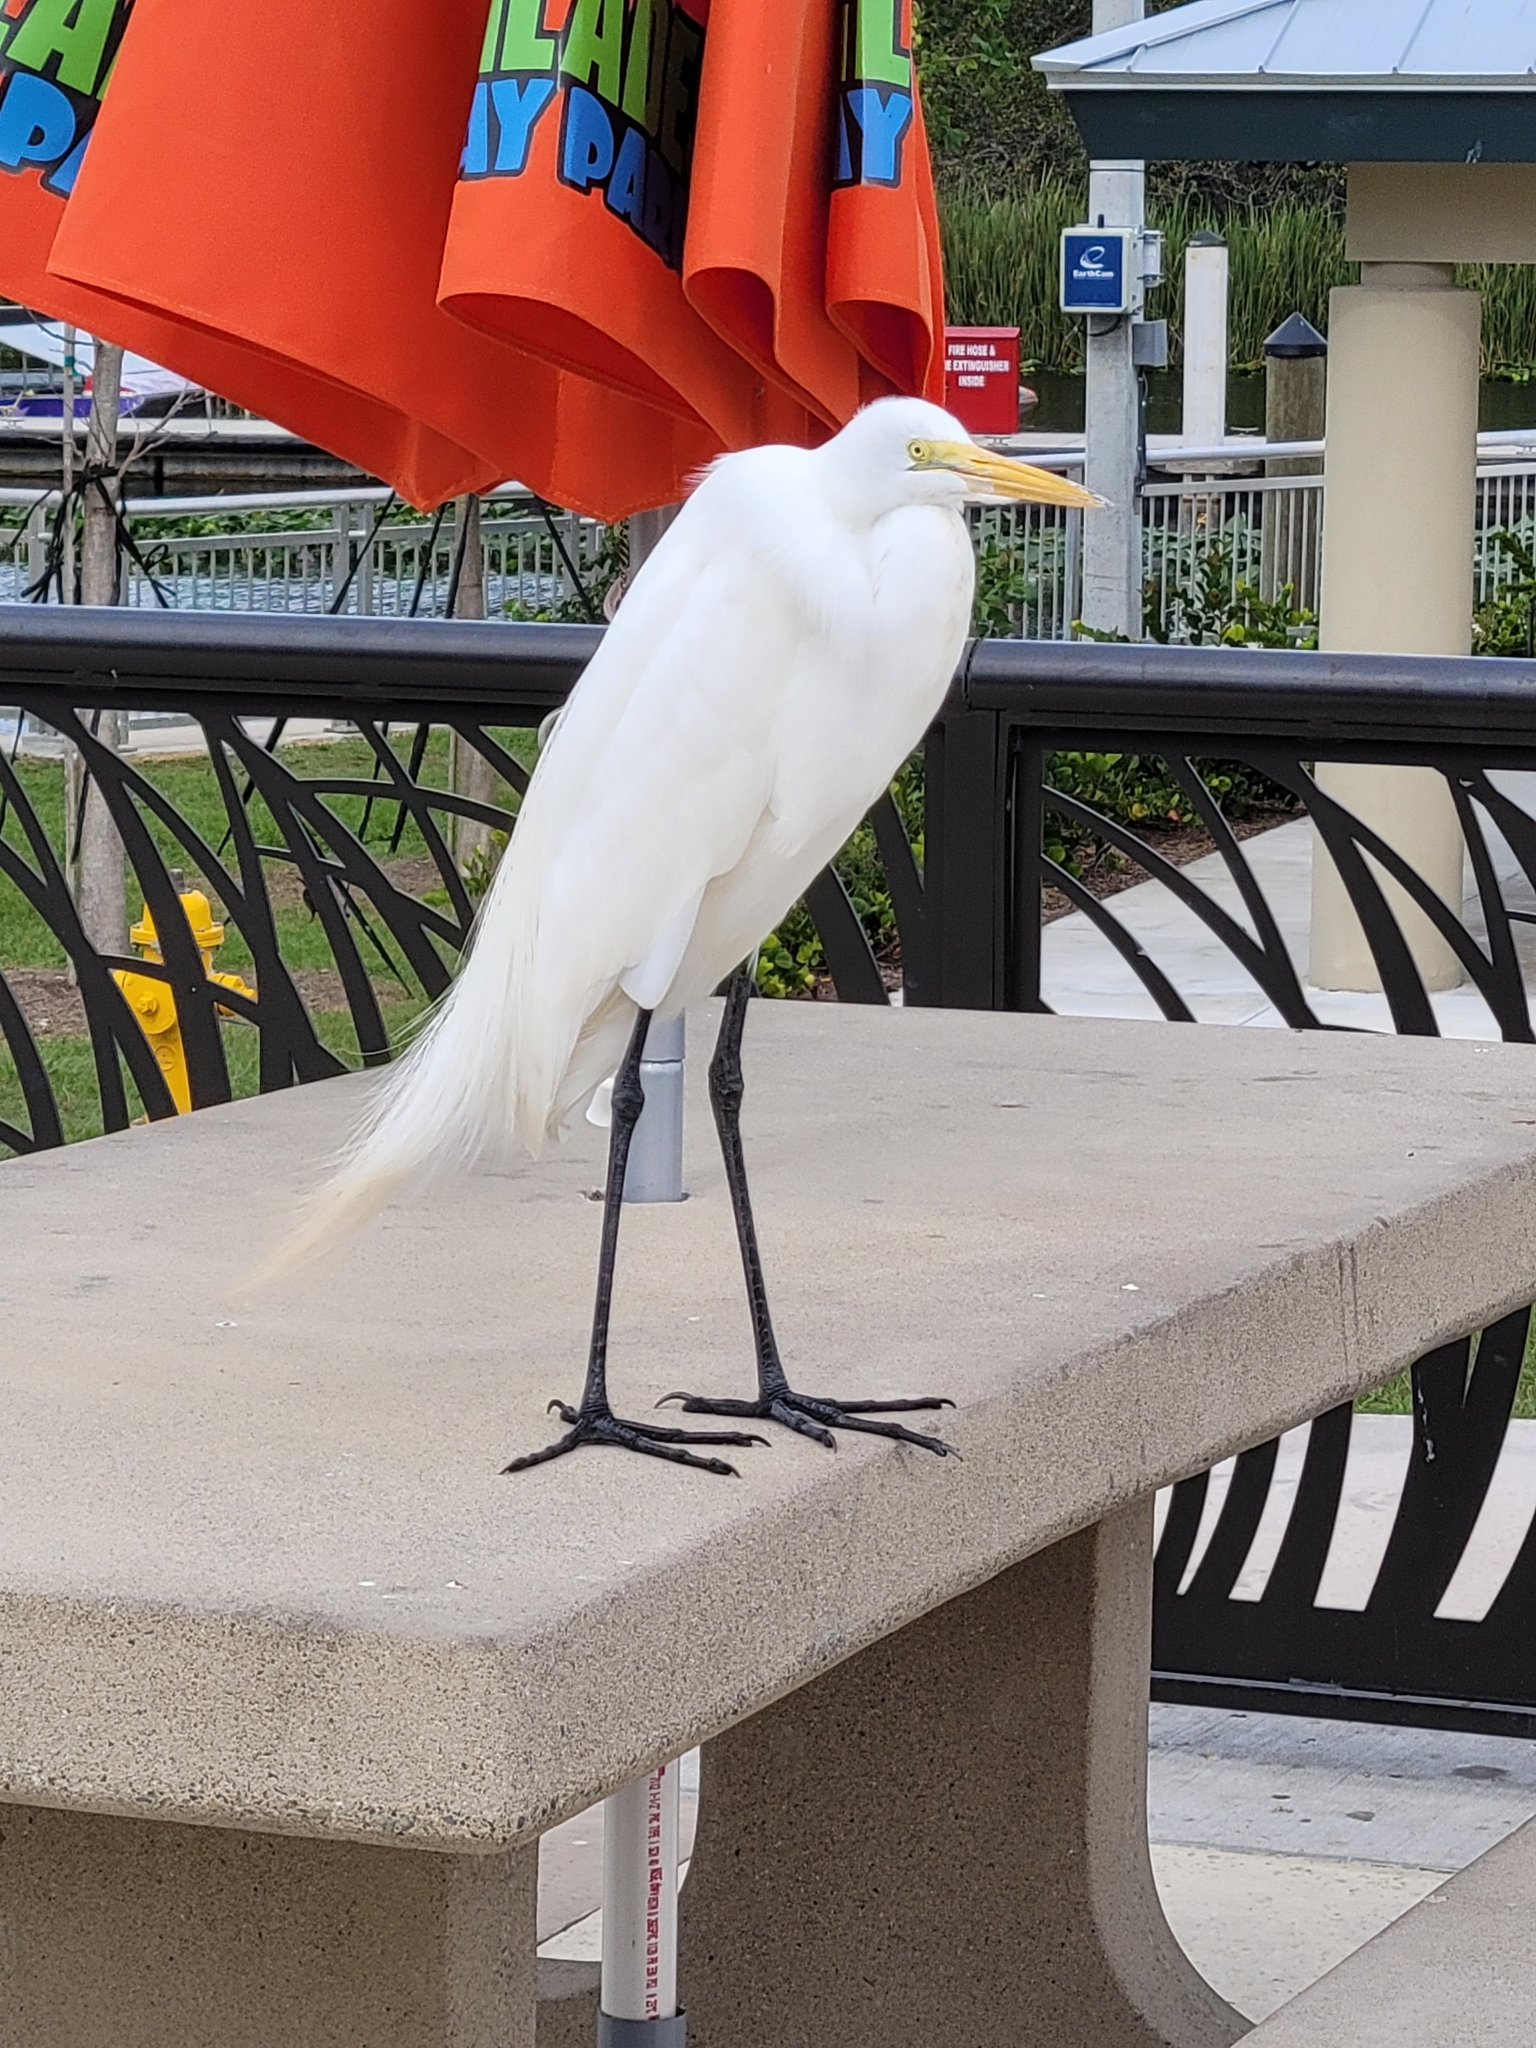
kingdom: Animalia
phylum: Chordata
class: Aves
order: Pelecaniformes
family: Ardeidae
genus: Ardea
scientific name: Ardea alba
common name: Great egret
